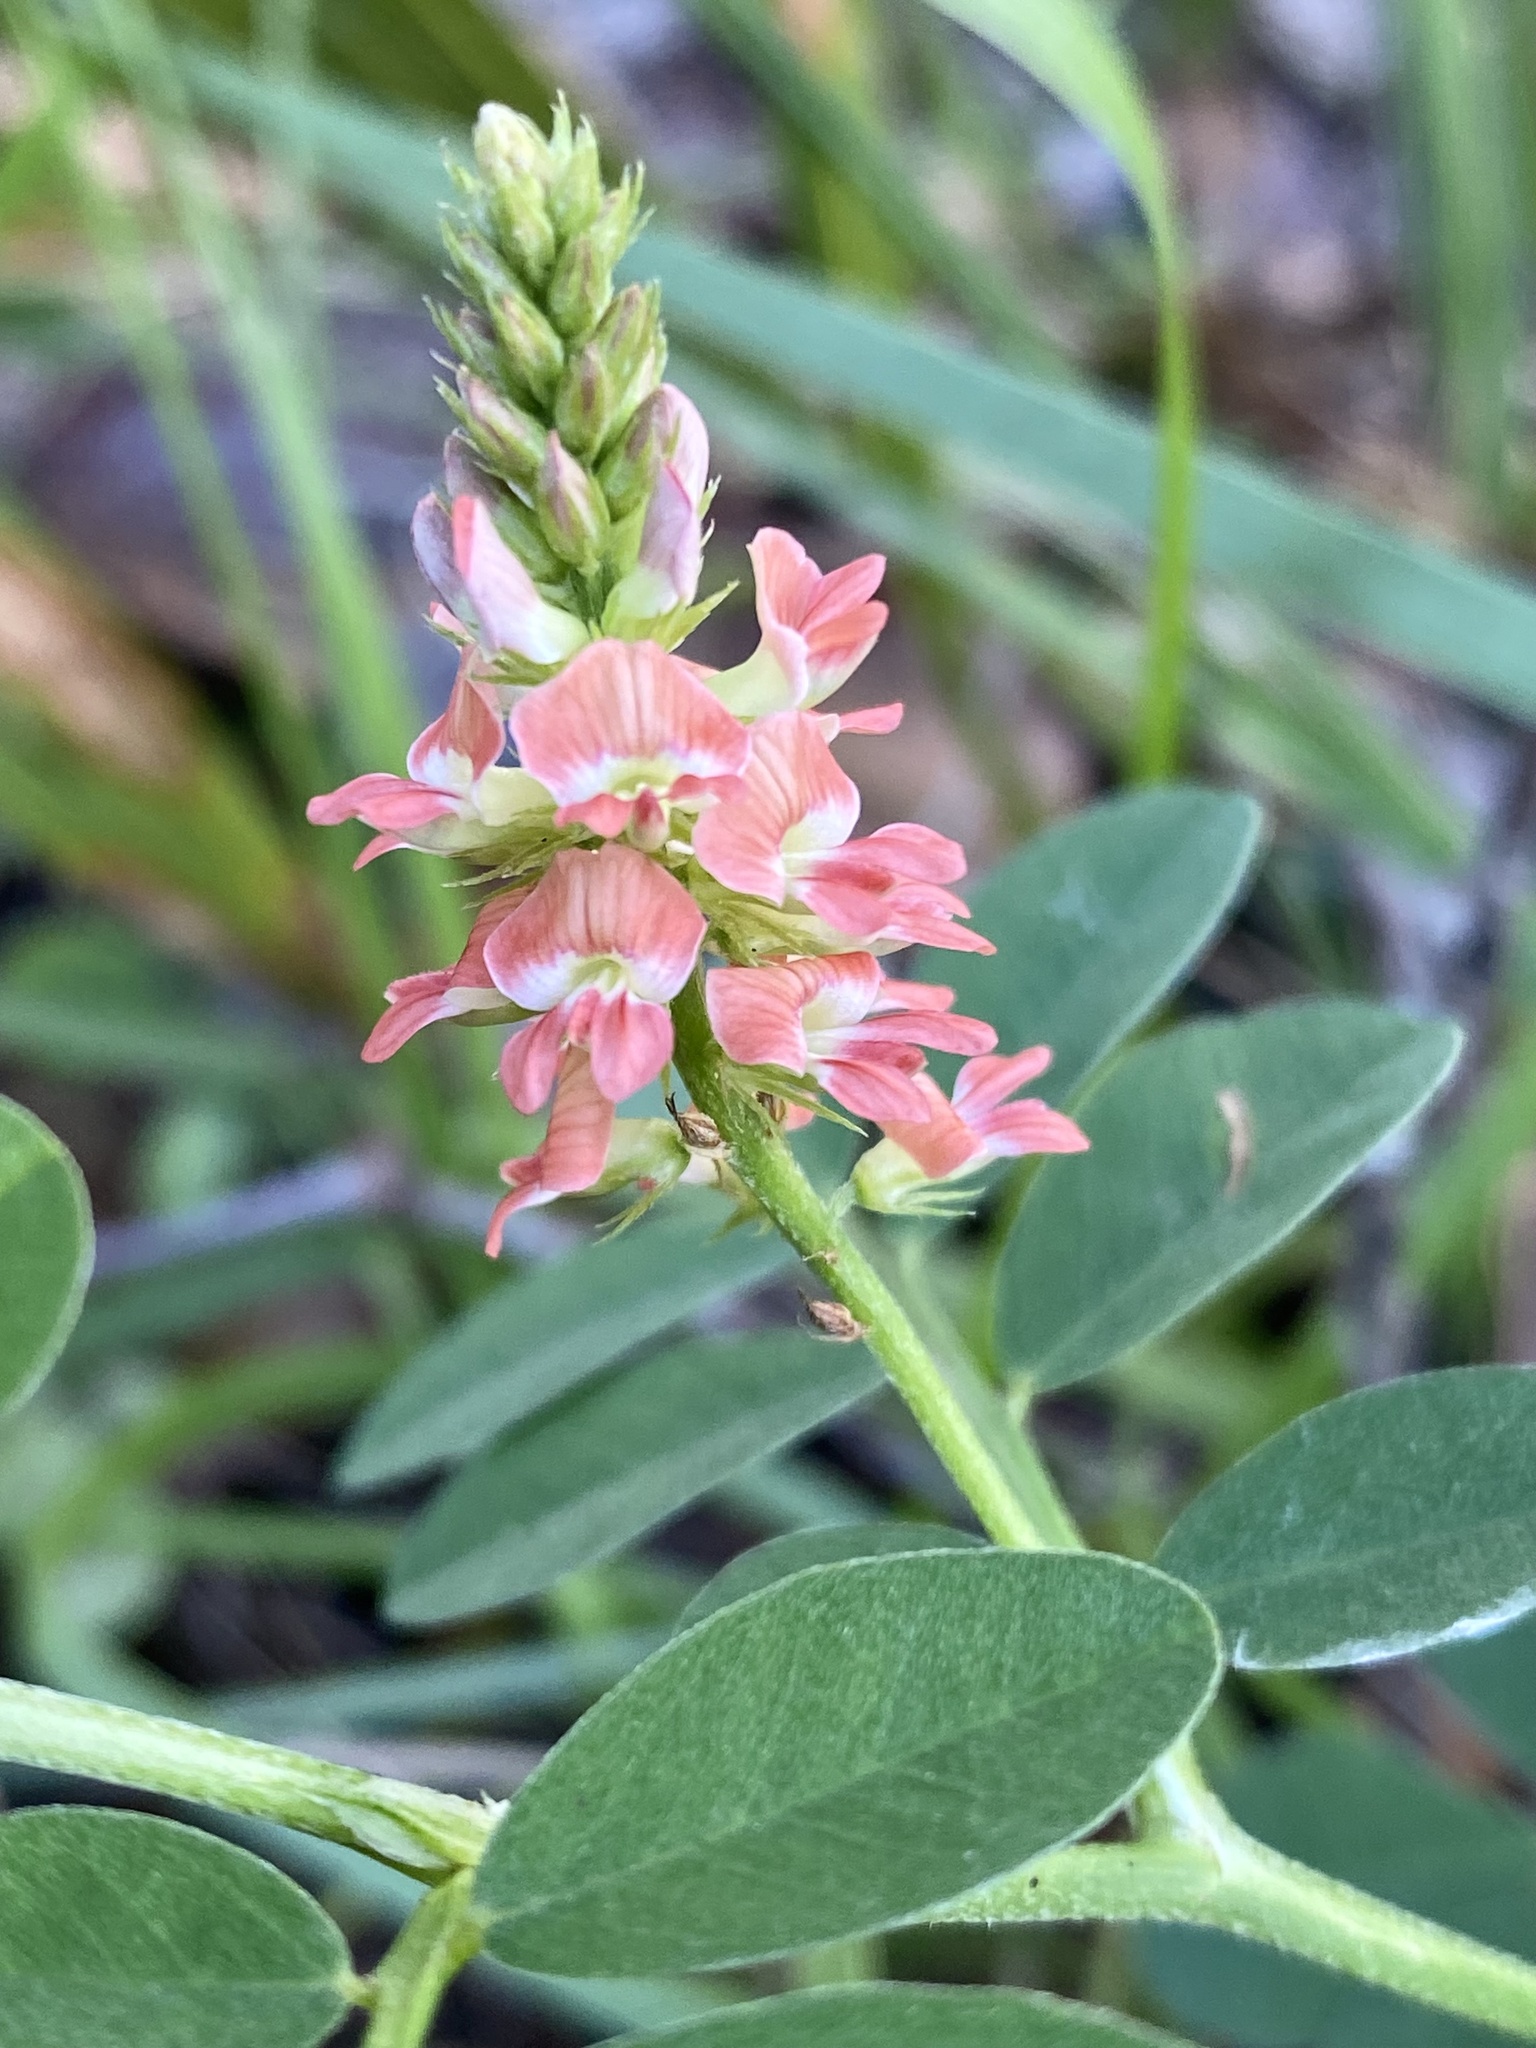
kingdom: Plantae
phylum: Tracheophyta
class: Magnoliopsida
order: Fabales
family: Fabaceae
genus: Indigofera
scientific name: Indigofera spicata
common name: Creeping indigo
